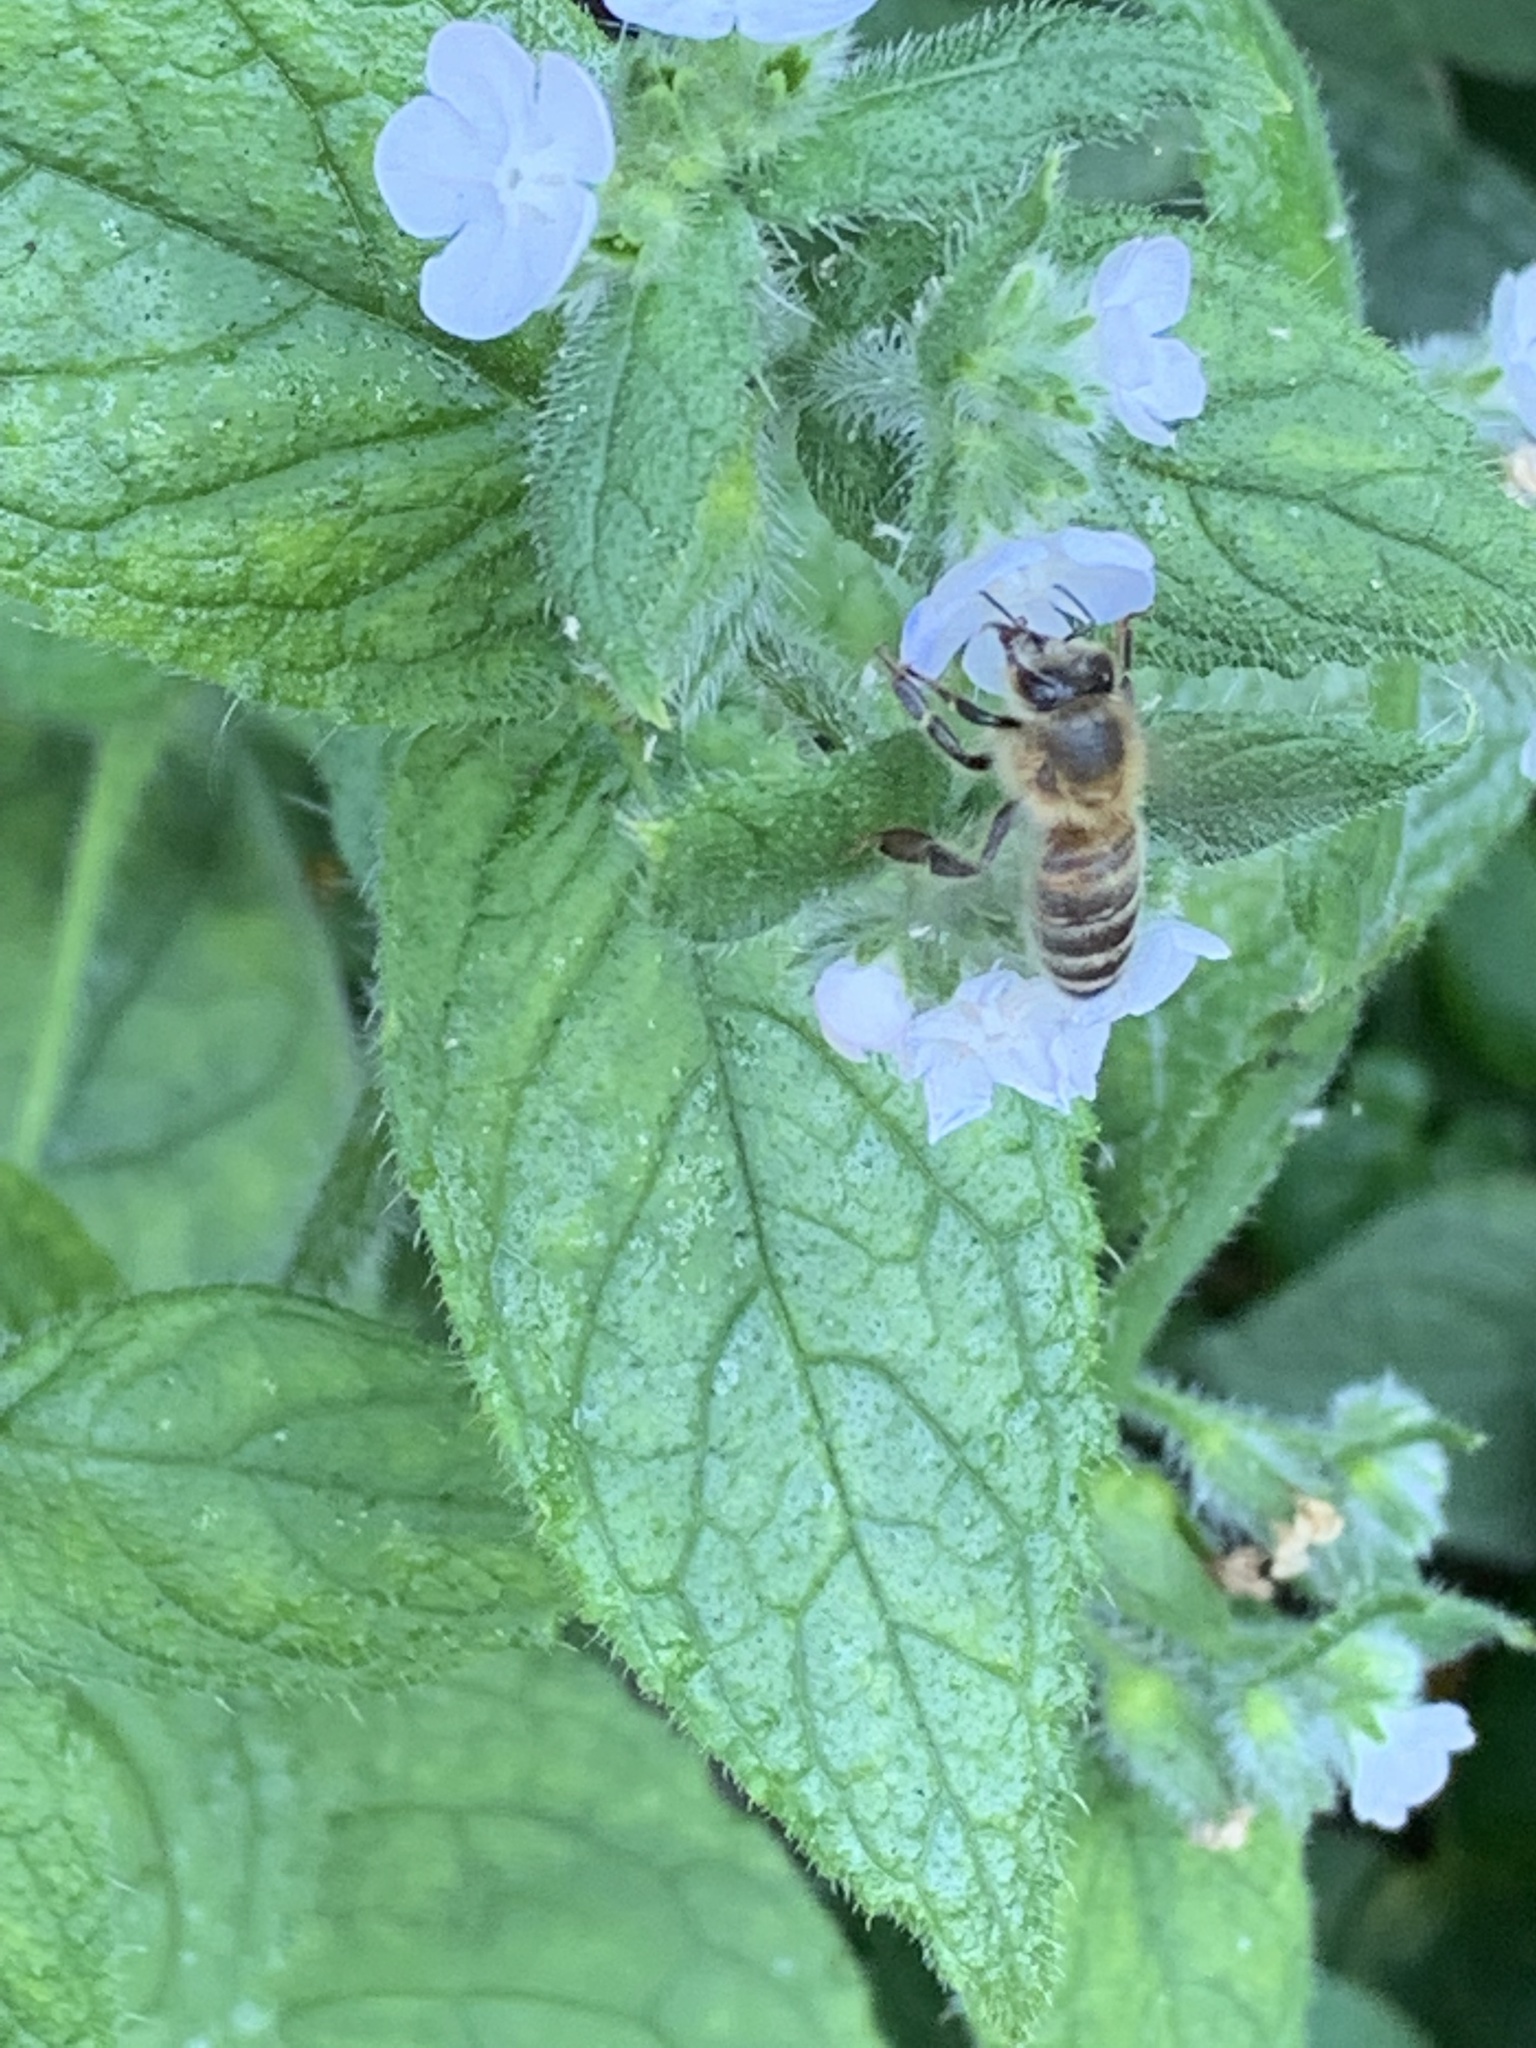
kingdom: Animalia
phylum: Arthropoda
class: Insecta
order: Hymenoptera
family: Apidae
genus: Apis
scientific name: Apis mellifera
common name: Honey bee
